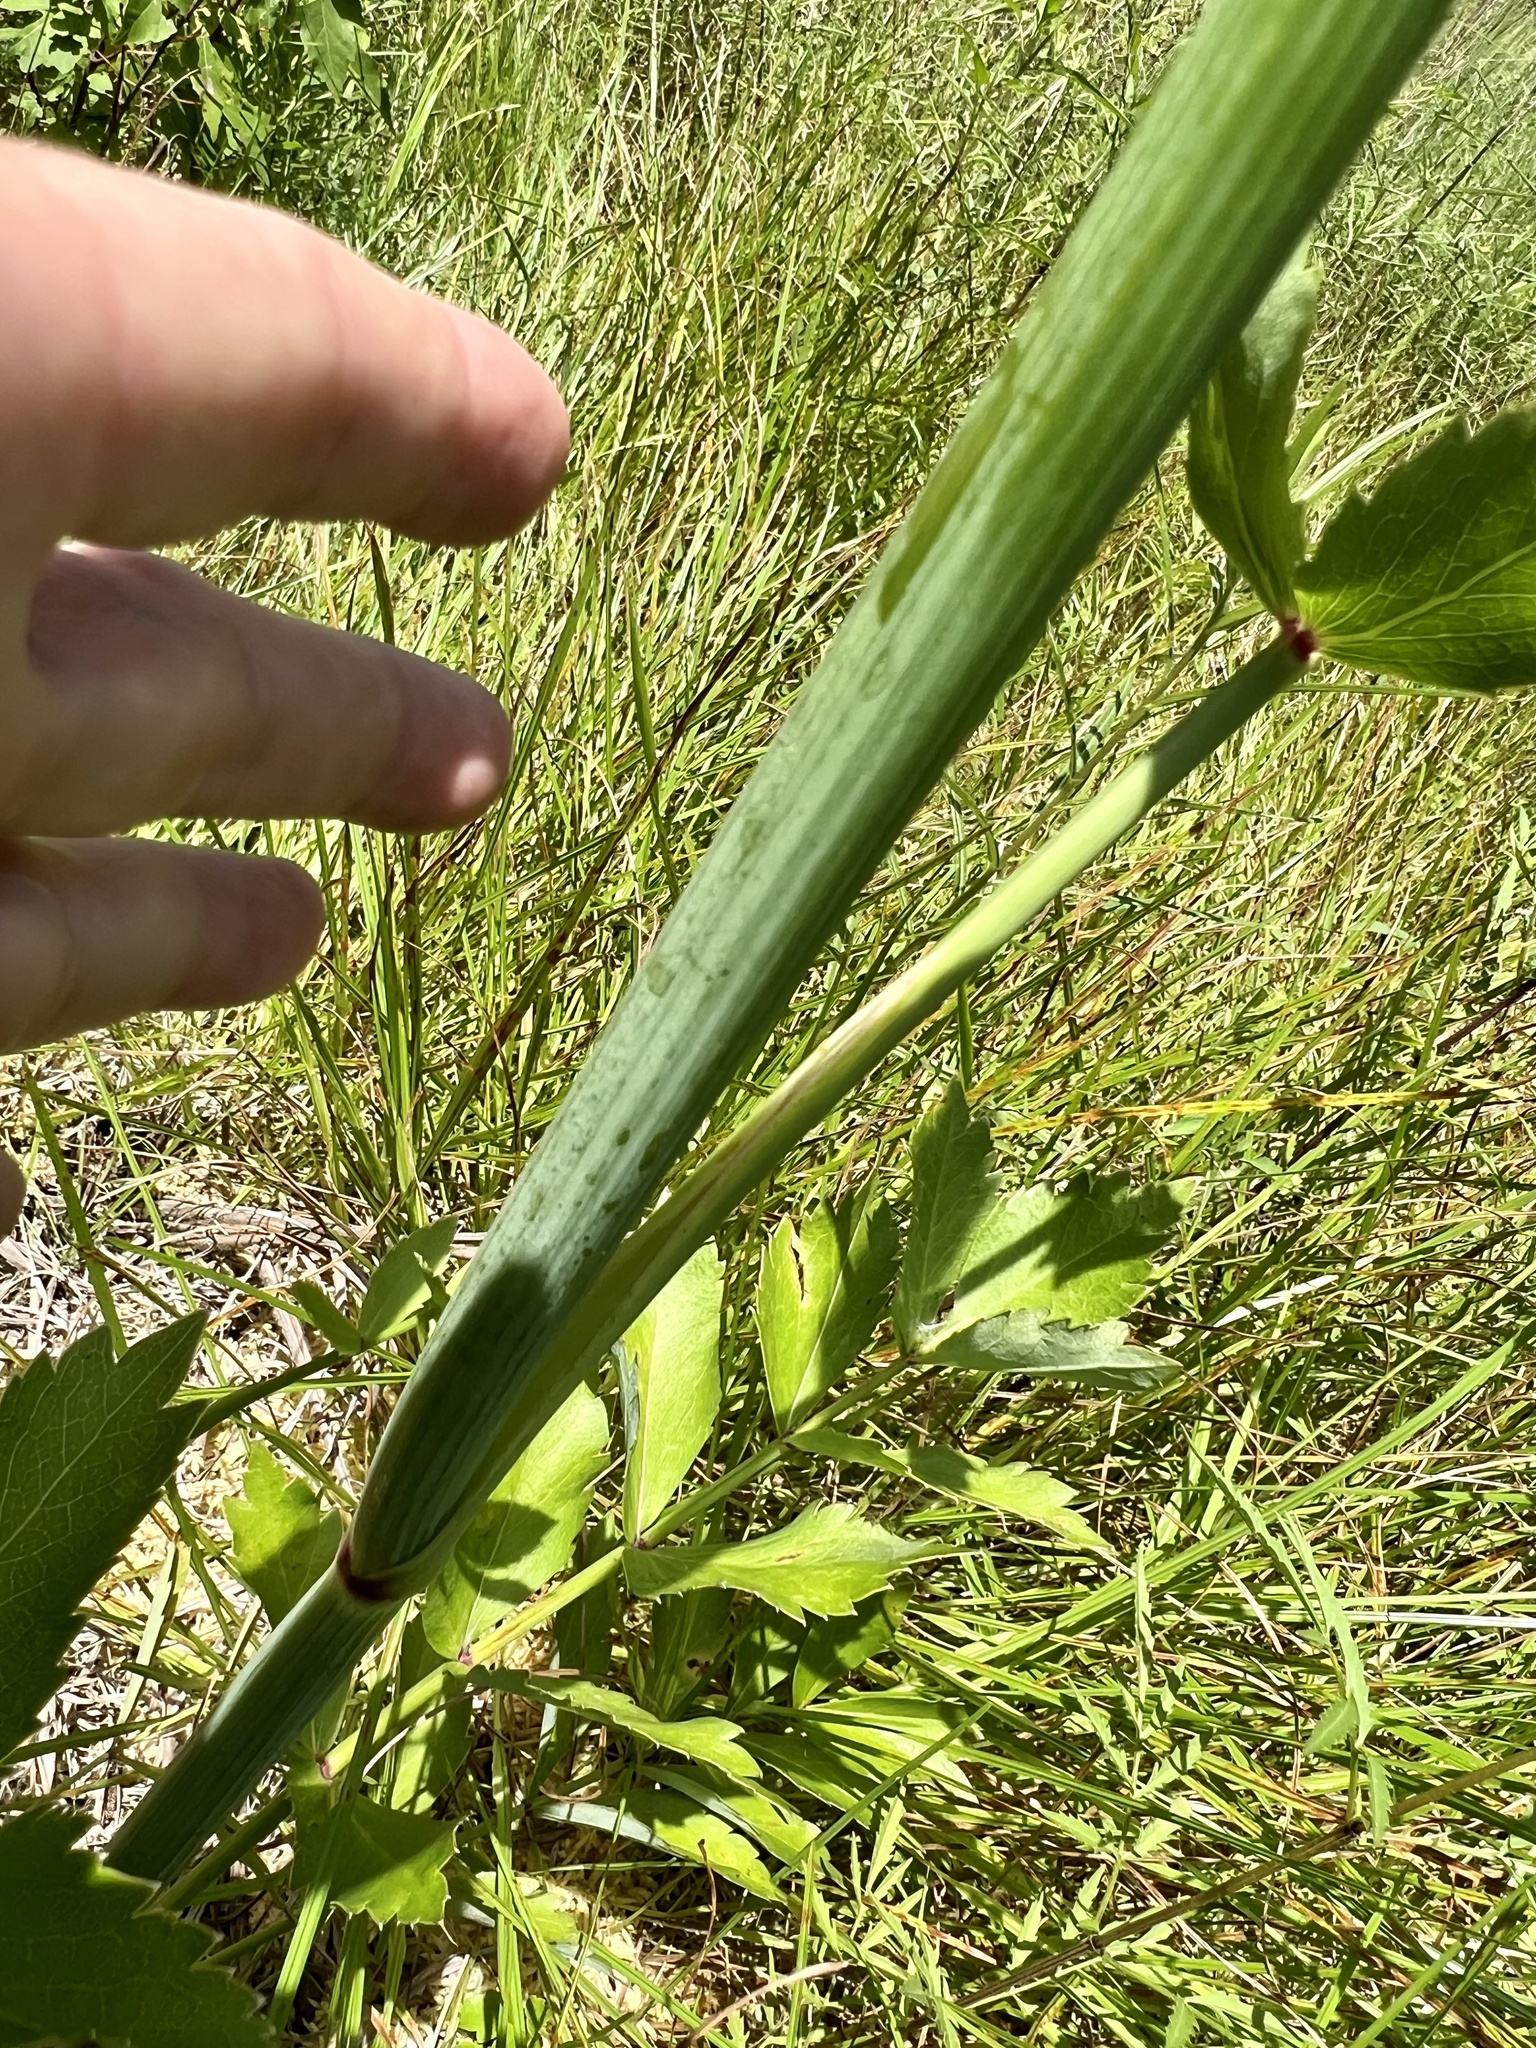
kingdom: Plantae
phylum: Tracheophyta
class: Magnoliopsida
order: Apiales
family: Apiaceae
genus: Oxypolis
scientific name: Oxypolis rigidior
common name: Cowbane
